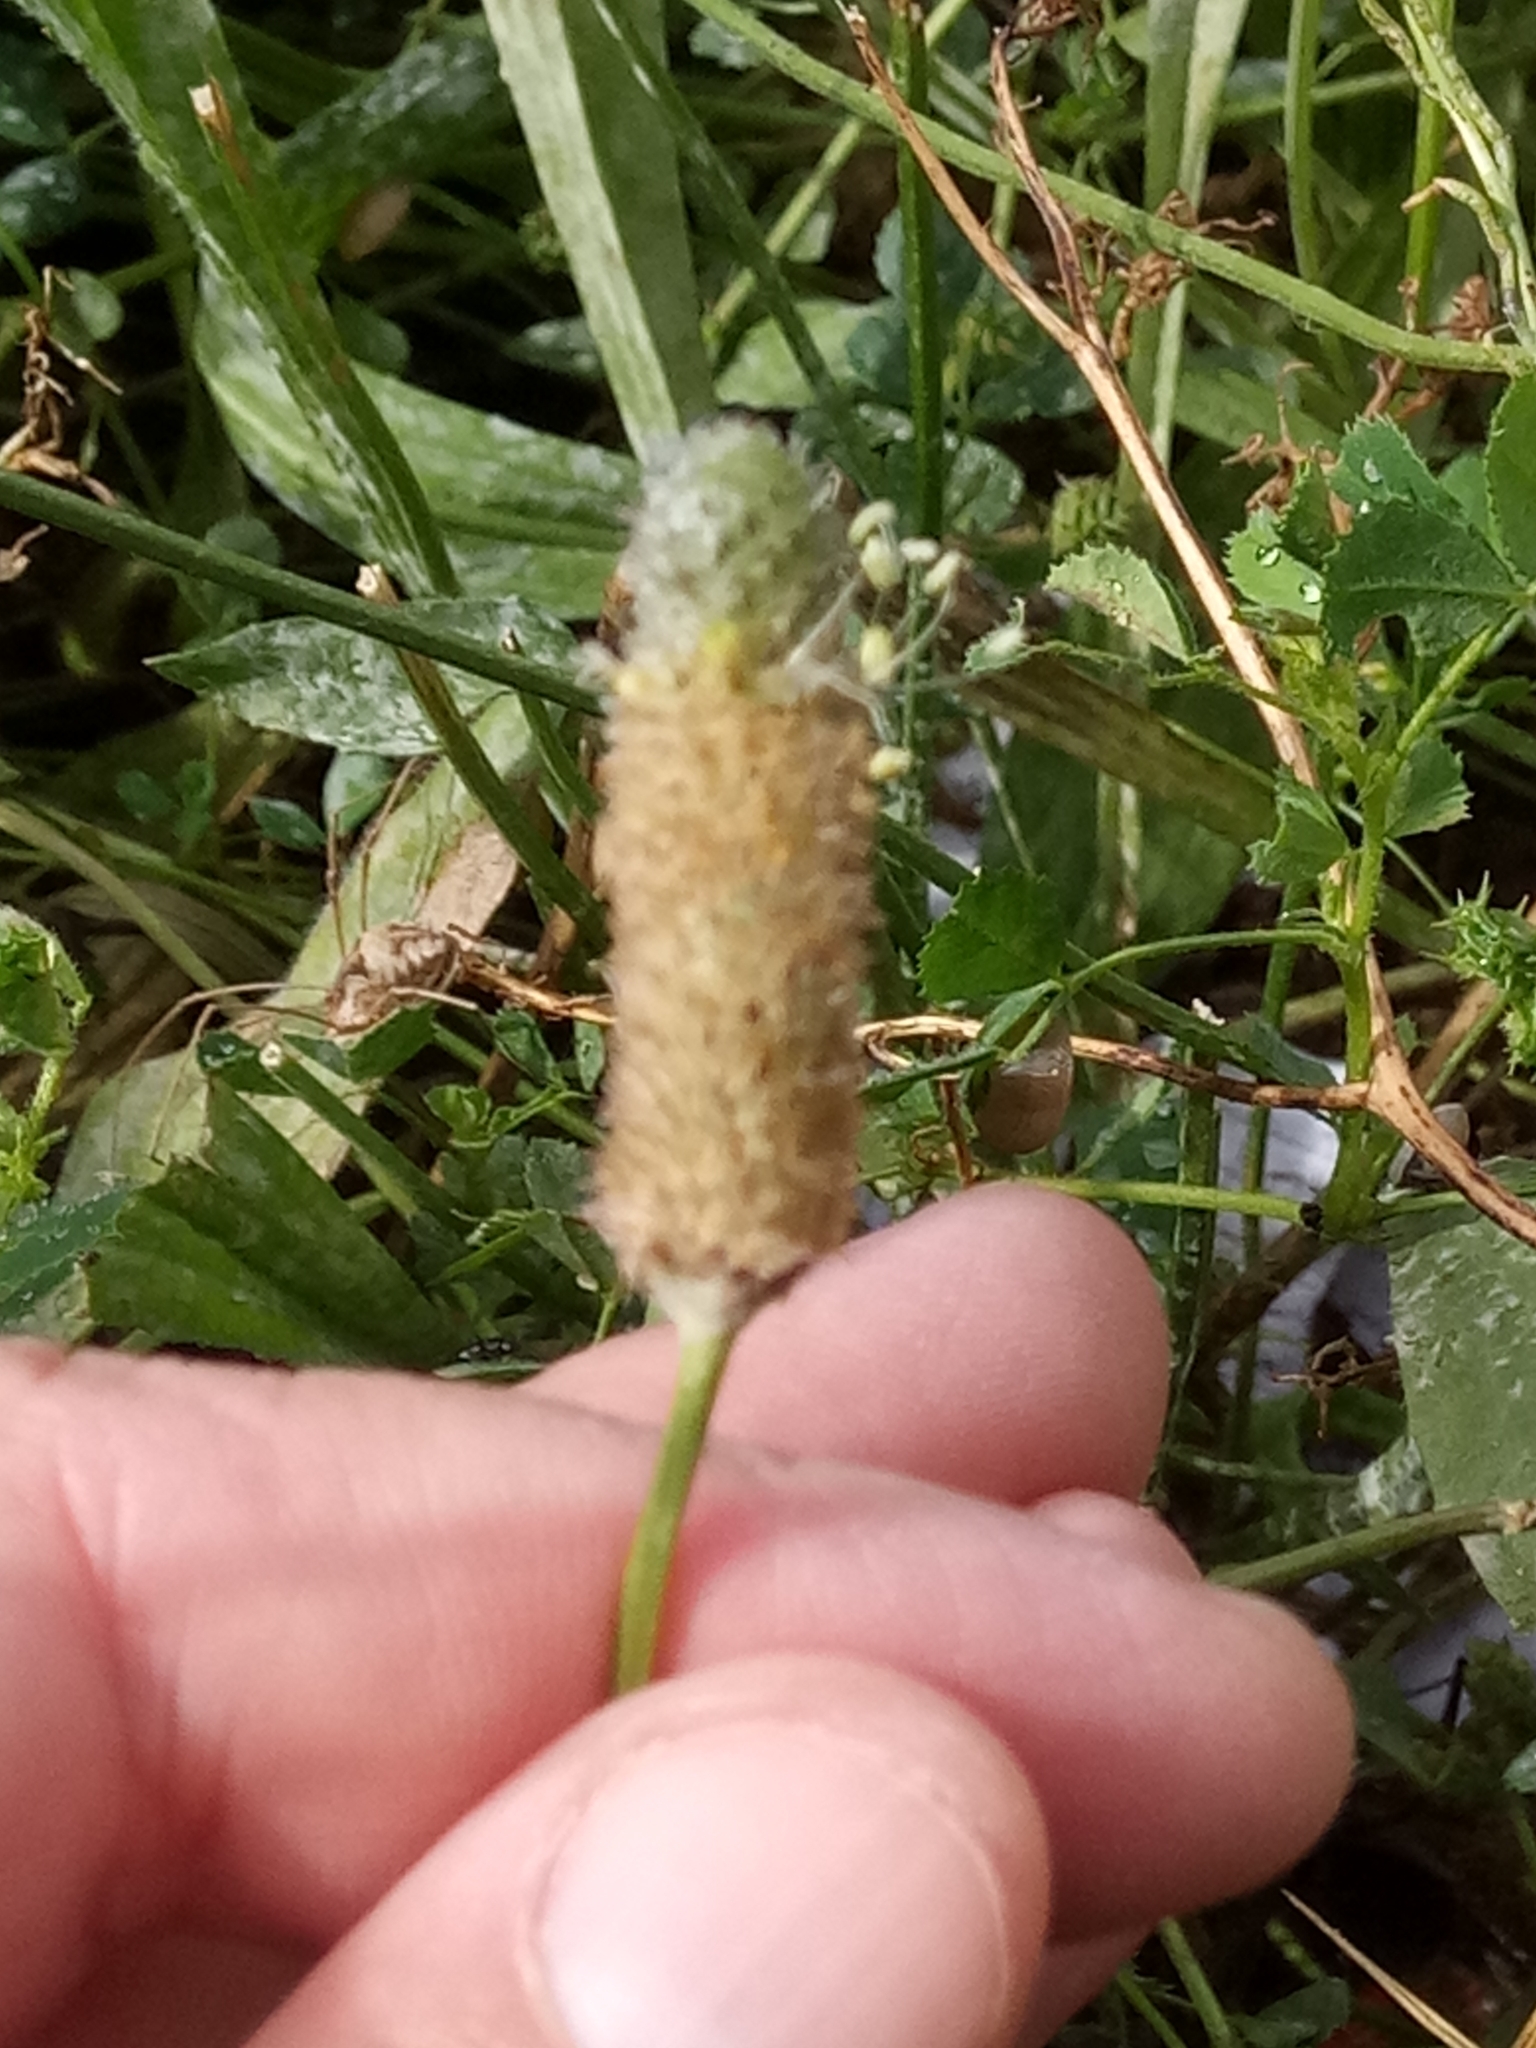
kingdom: Plantae
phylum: Tracheophyta
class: Magnoliopsida
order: Lamiales
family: Plantaginaceae
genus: Plantago
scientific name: Plantago lagopus
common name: Hare-foot plantain
